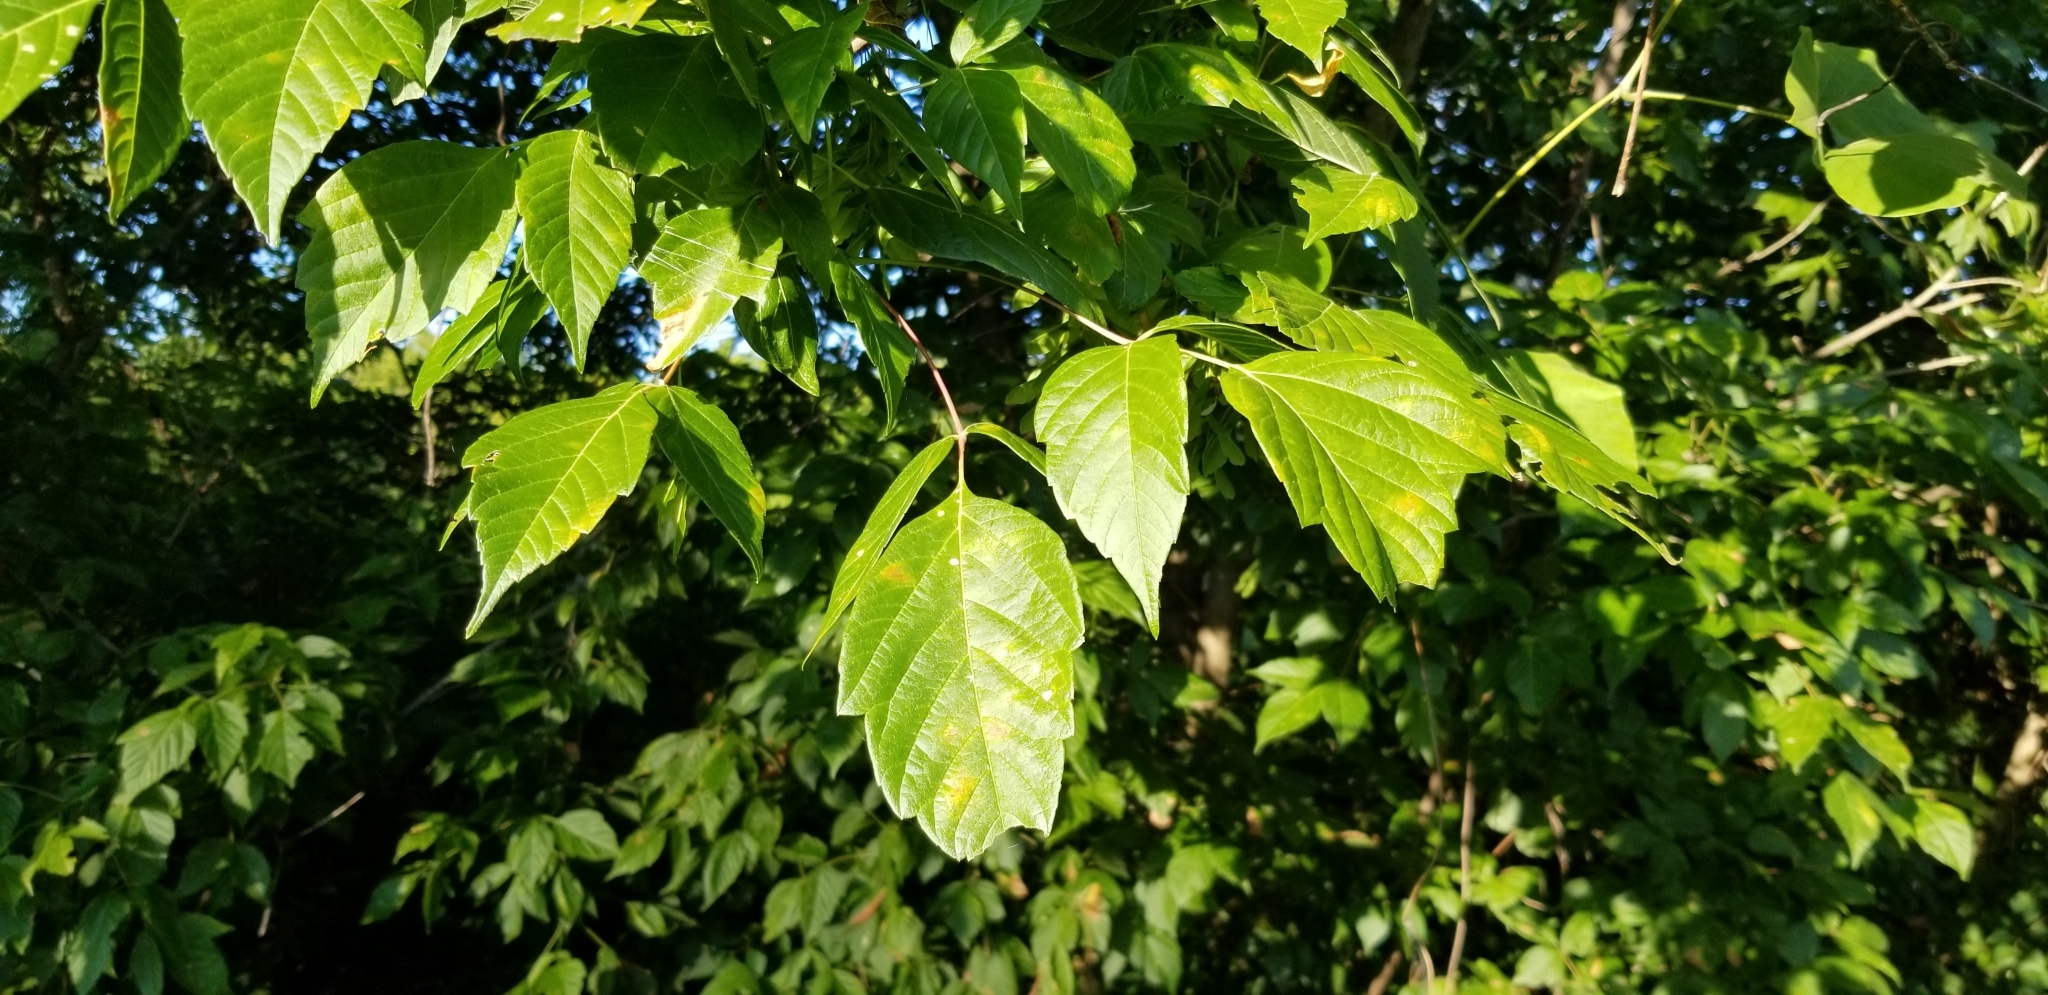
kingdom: Plantae
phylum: Tracheophyta
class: Magnoliopsida
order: Sapindales
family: Sapindaceae
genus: Acer
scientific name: Acer negundo
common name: Ashleaf maple
